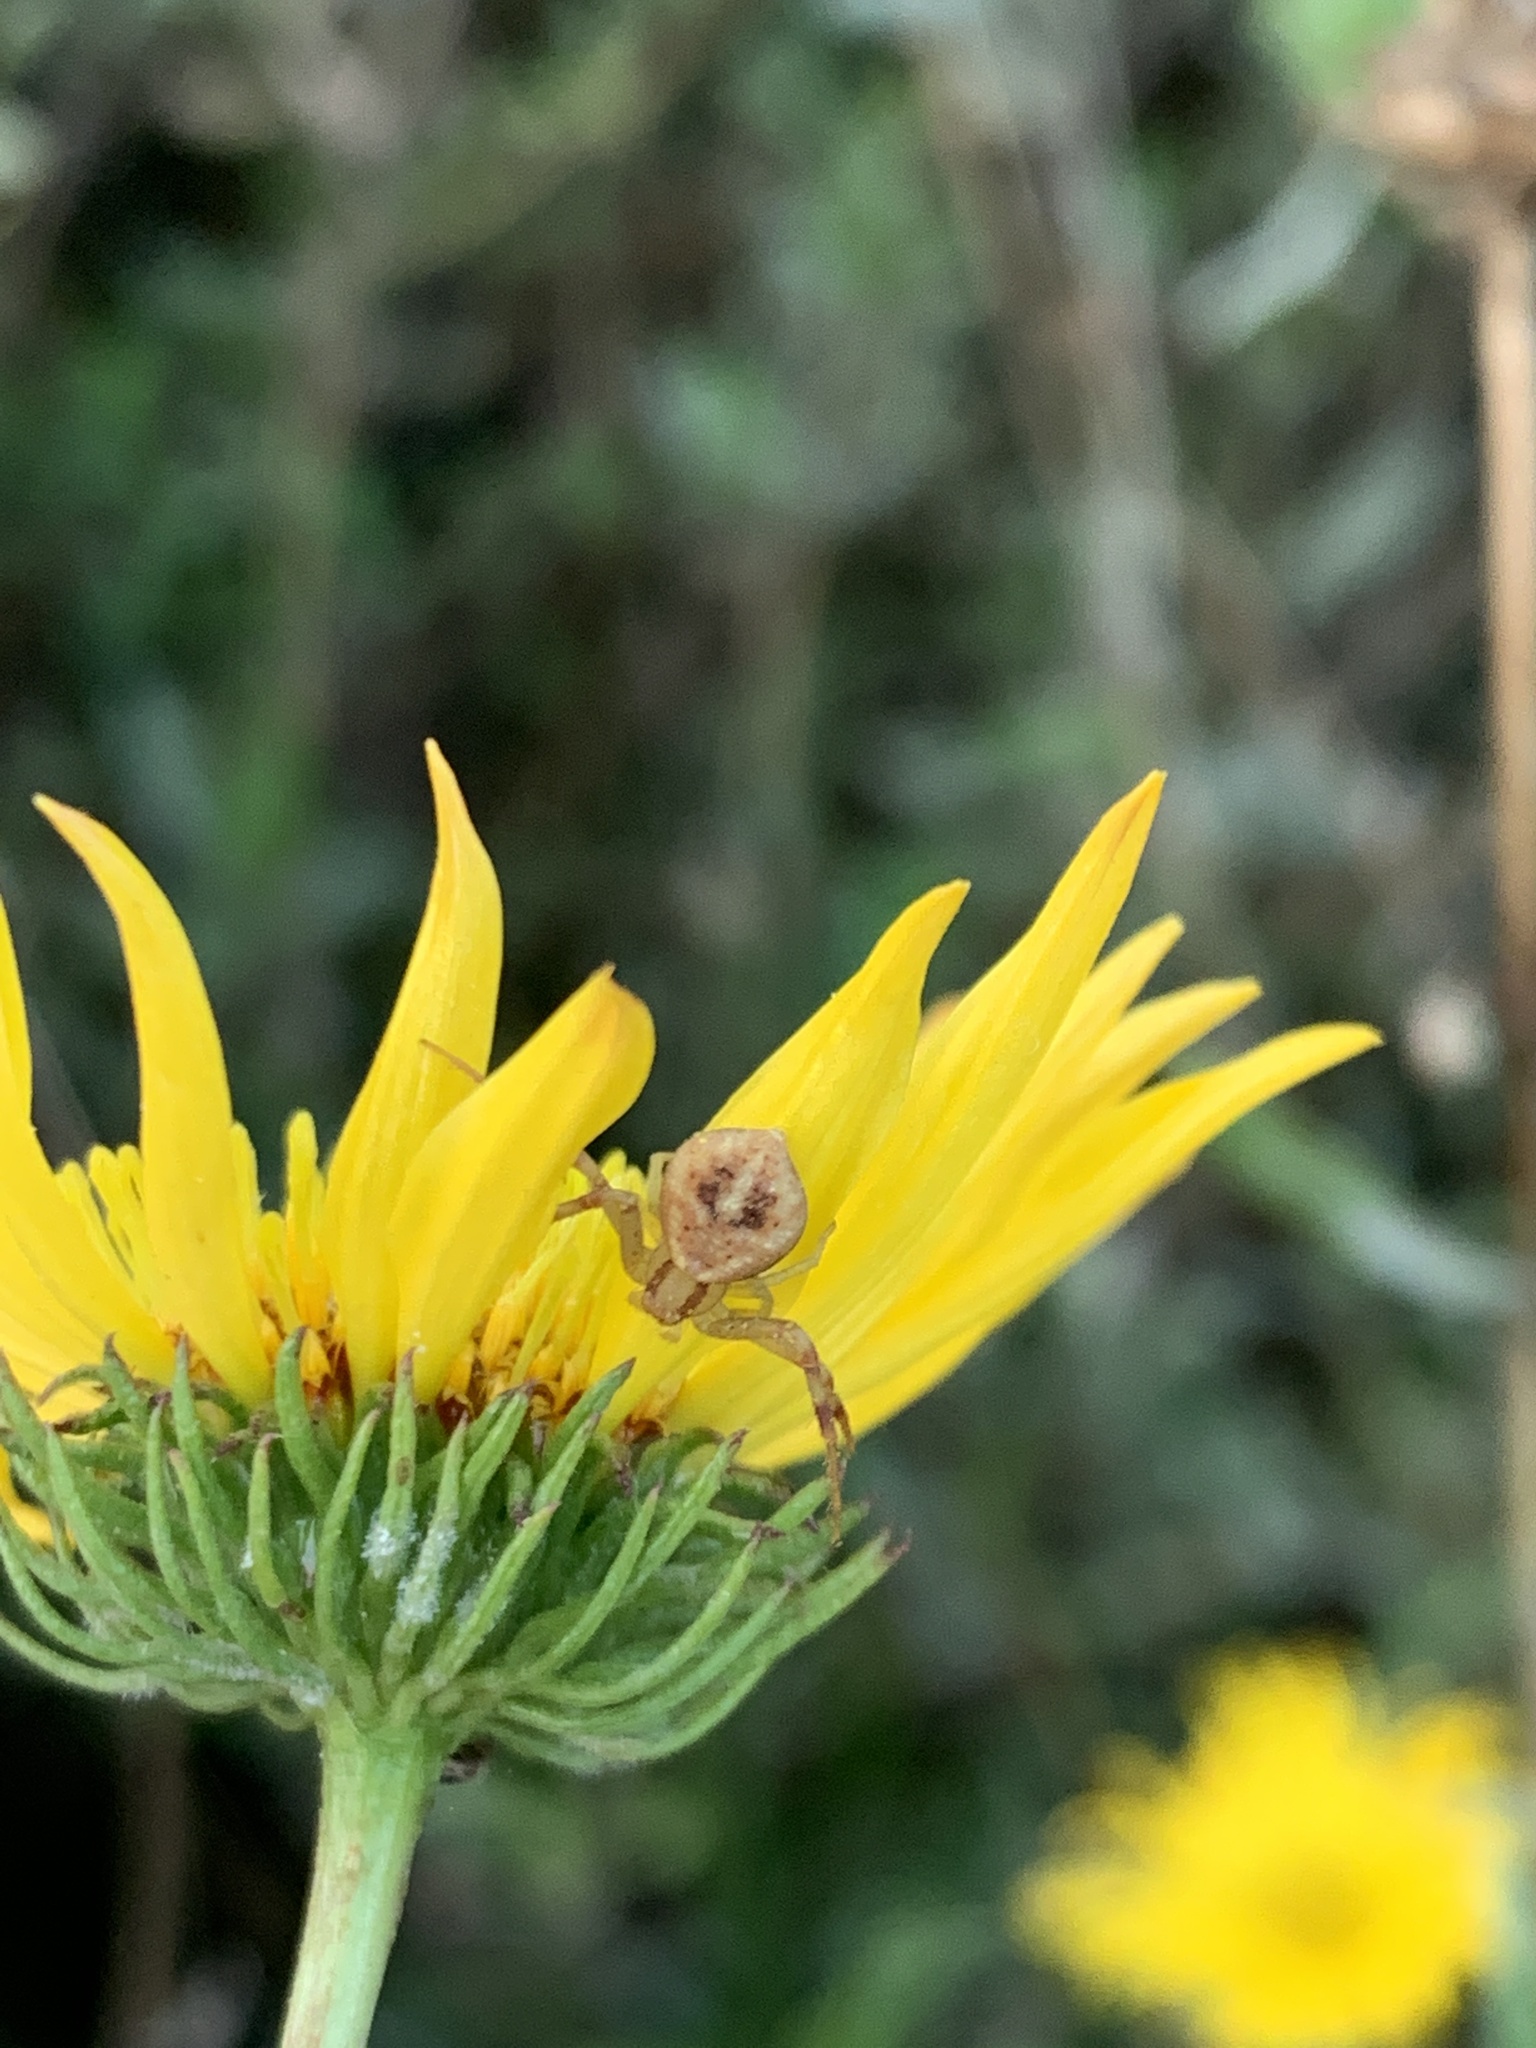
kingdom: Animalia
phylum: Arthropoda
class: Arachnida
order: Araneae
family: Thomisidae
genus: Misumenops
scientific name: Misumenops
